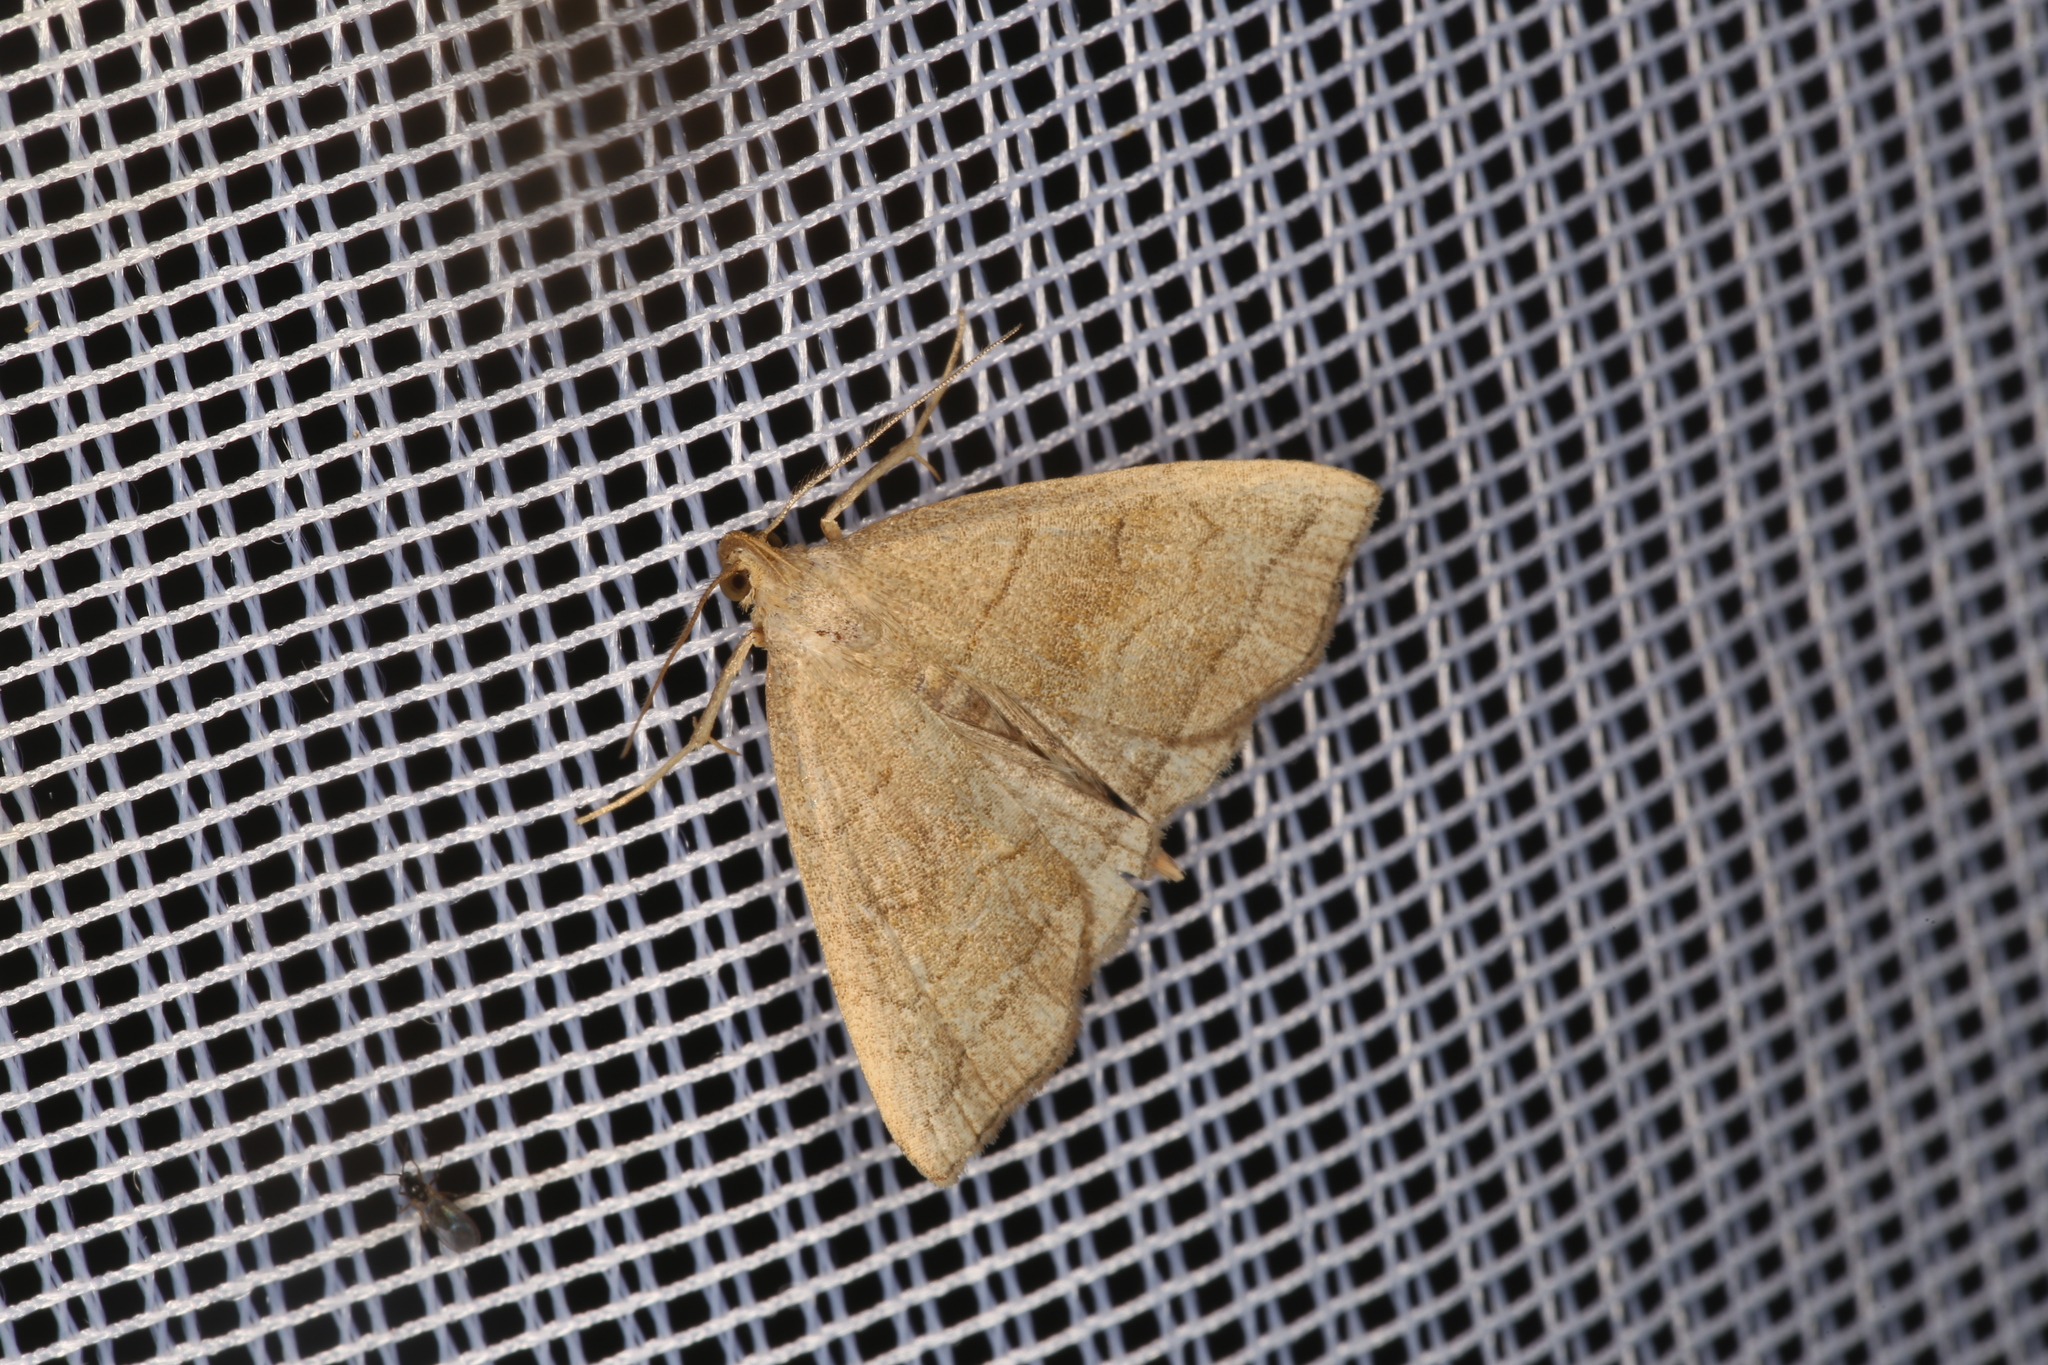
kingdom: Animalia
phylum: Arthropoda
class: Insecta
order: Lepidoptera
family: Erebidae
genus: Herminia
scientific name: Herminia tarsicrinalis
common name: Shaded fan-foot
